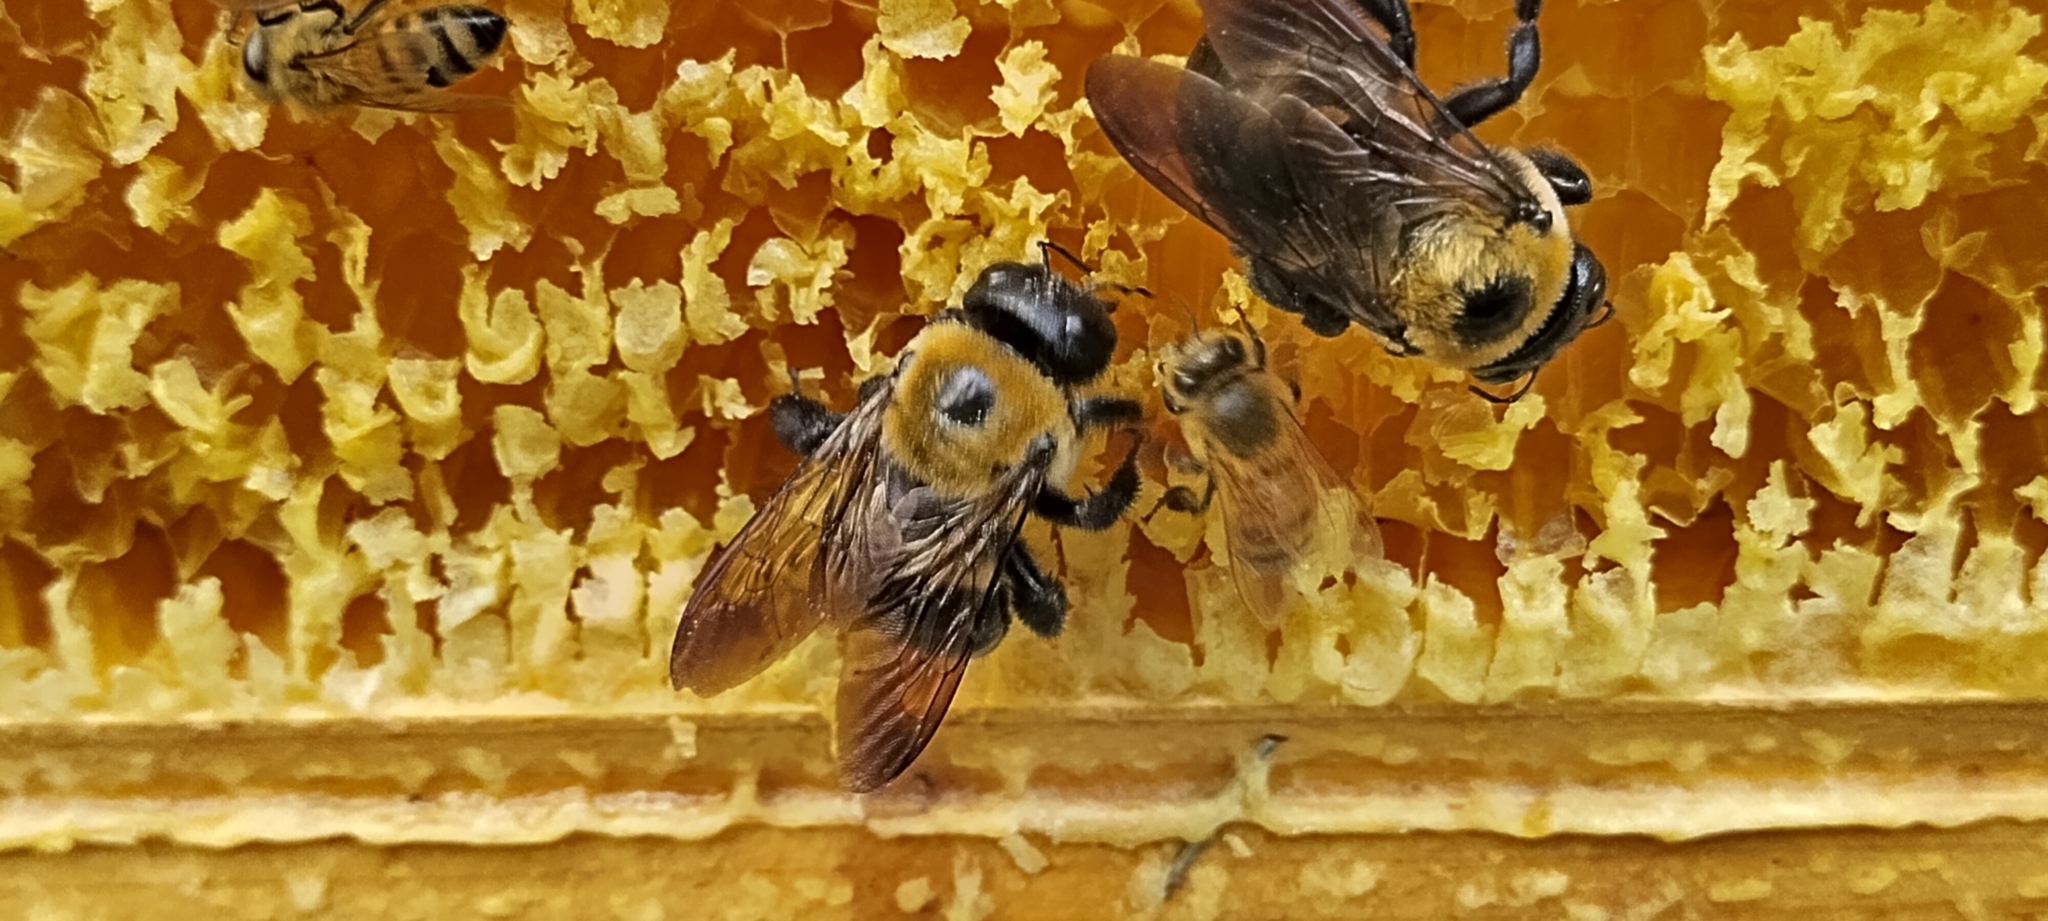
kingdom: Animalia
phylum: Arthropoda
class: Insecta
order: Hymenoptera
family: Apidae
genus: Xylocopa
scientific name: Xylocopa virginica
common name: Carpenter bee
